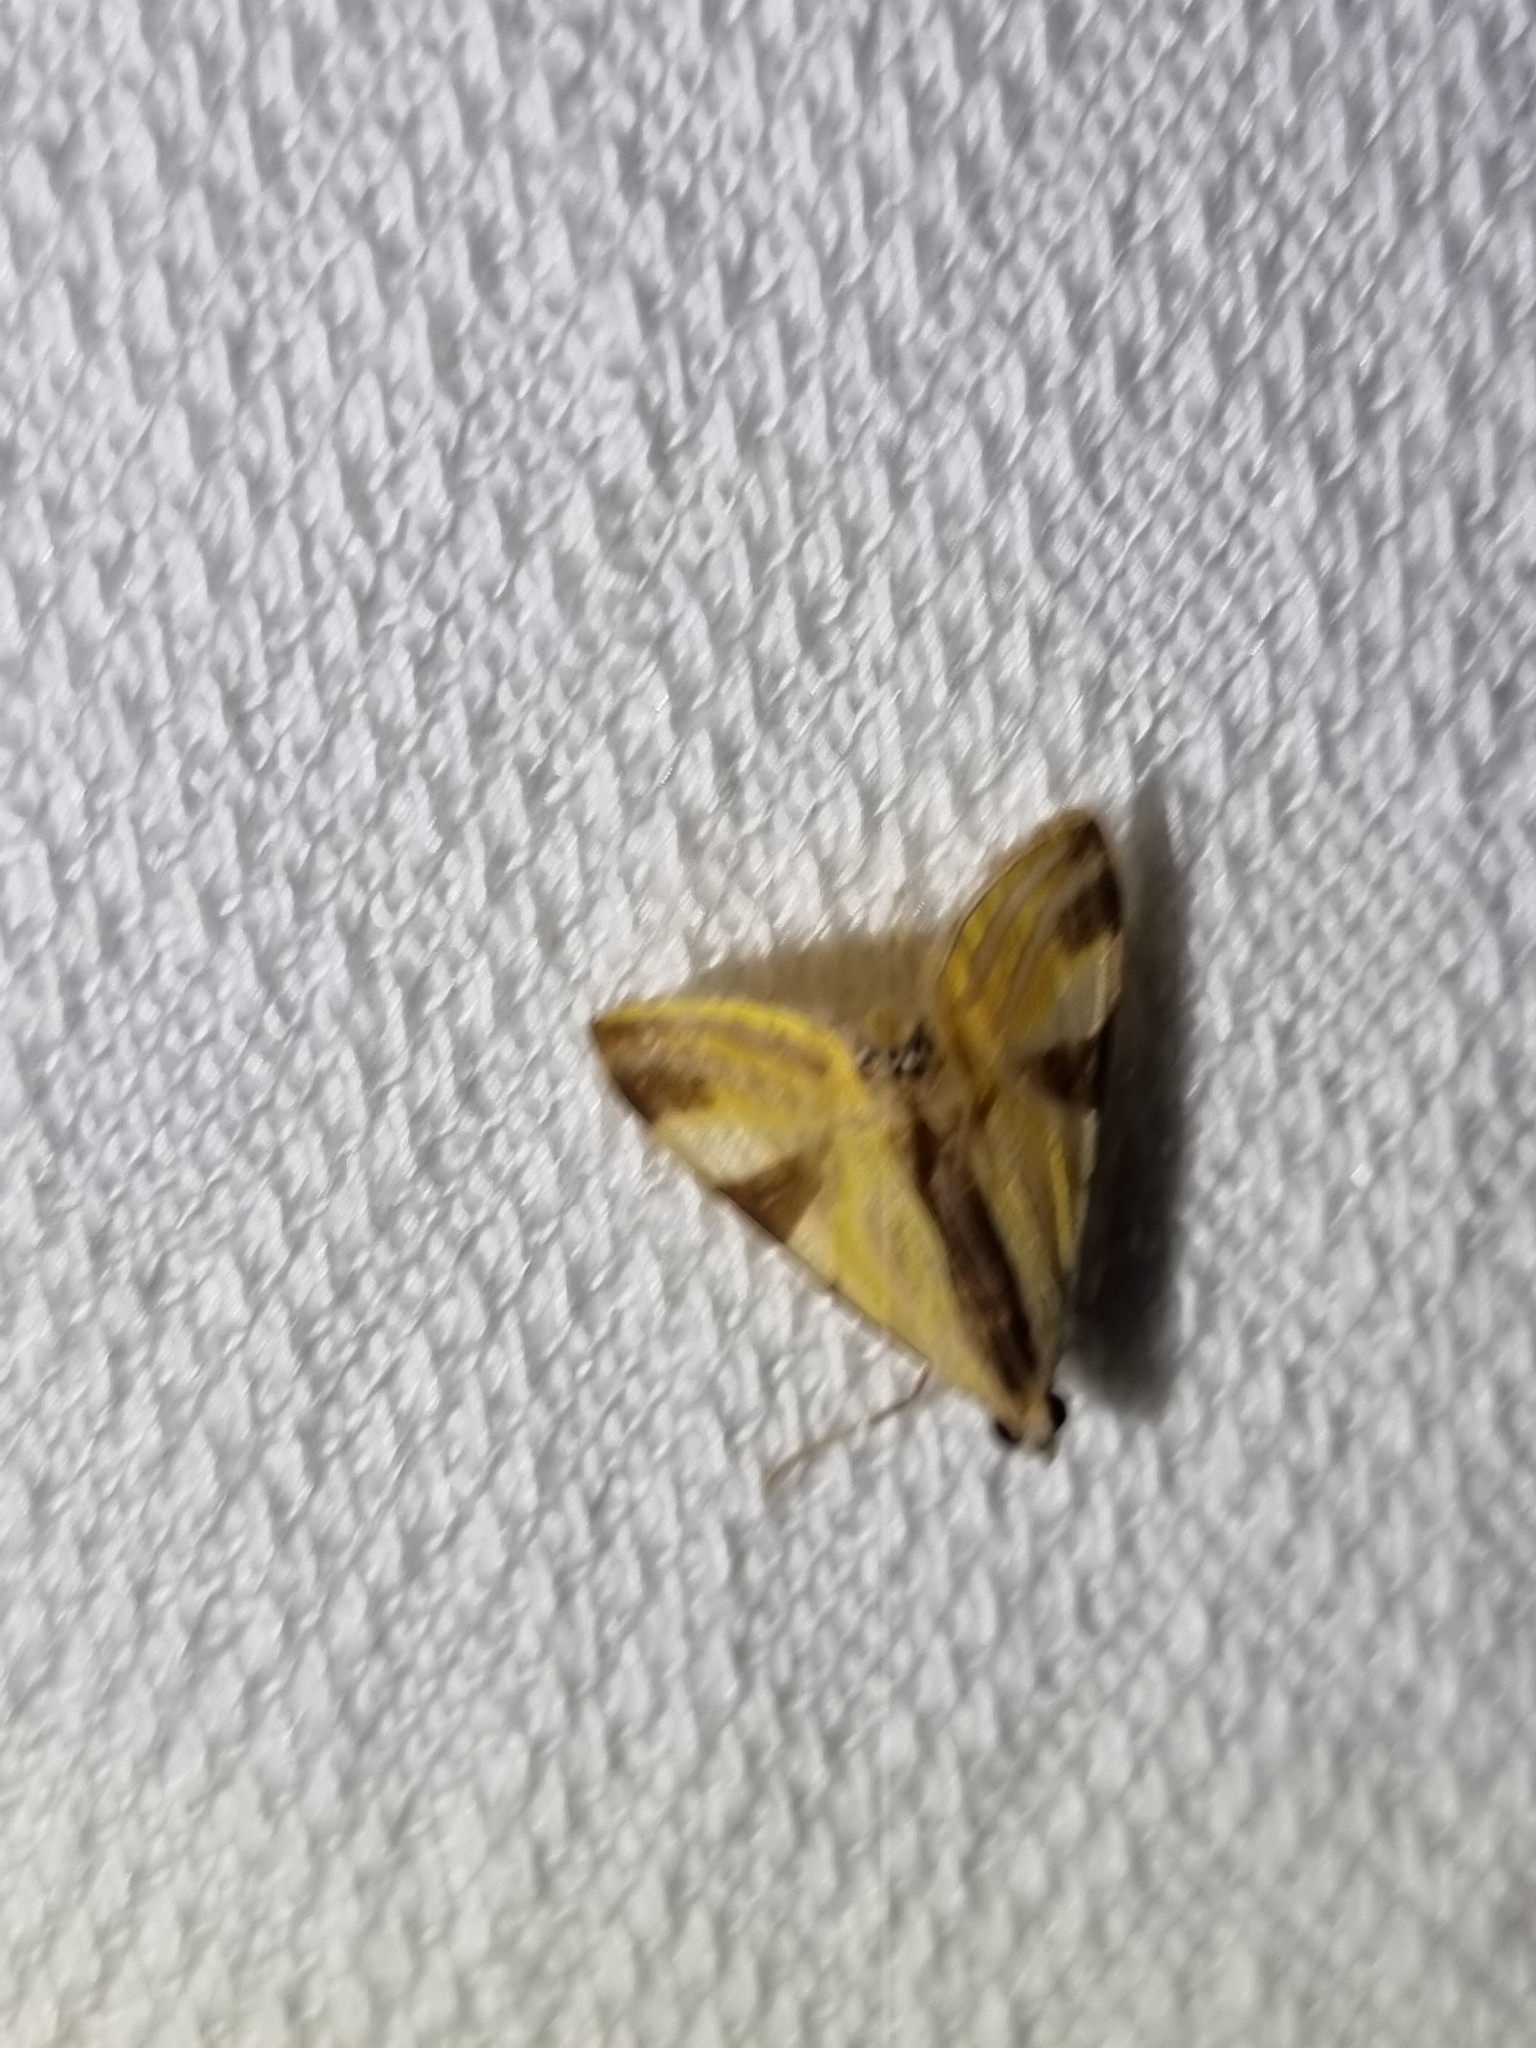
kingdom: Animalia
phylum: Arthropoda
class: Insecta
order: Lepidoptera
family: Crambidae
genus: Talanga
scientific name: Talanga tolumnialis
